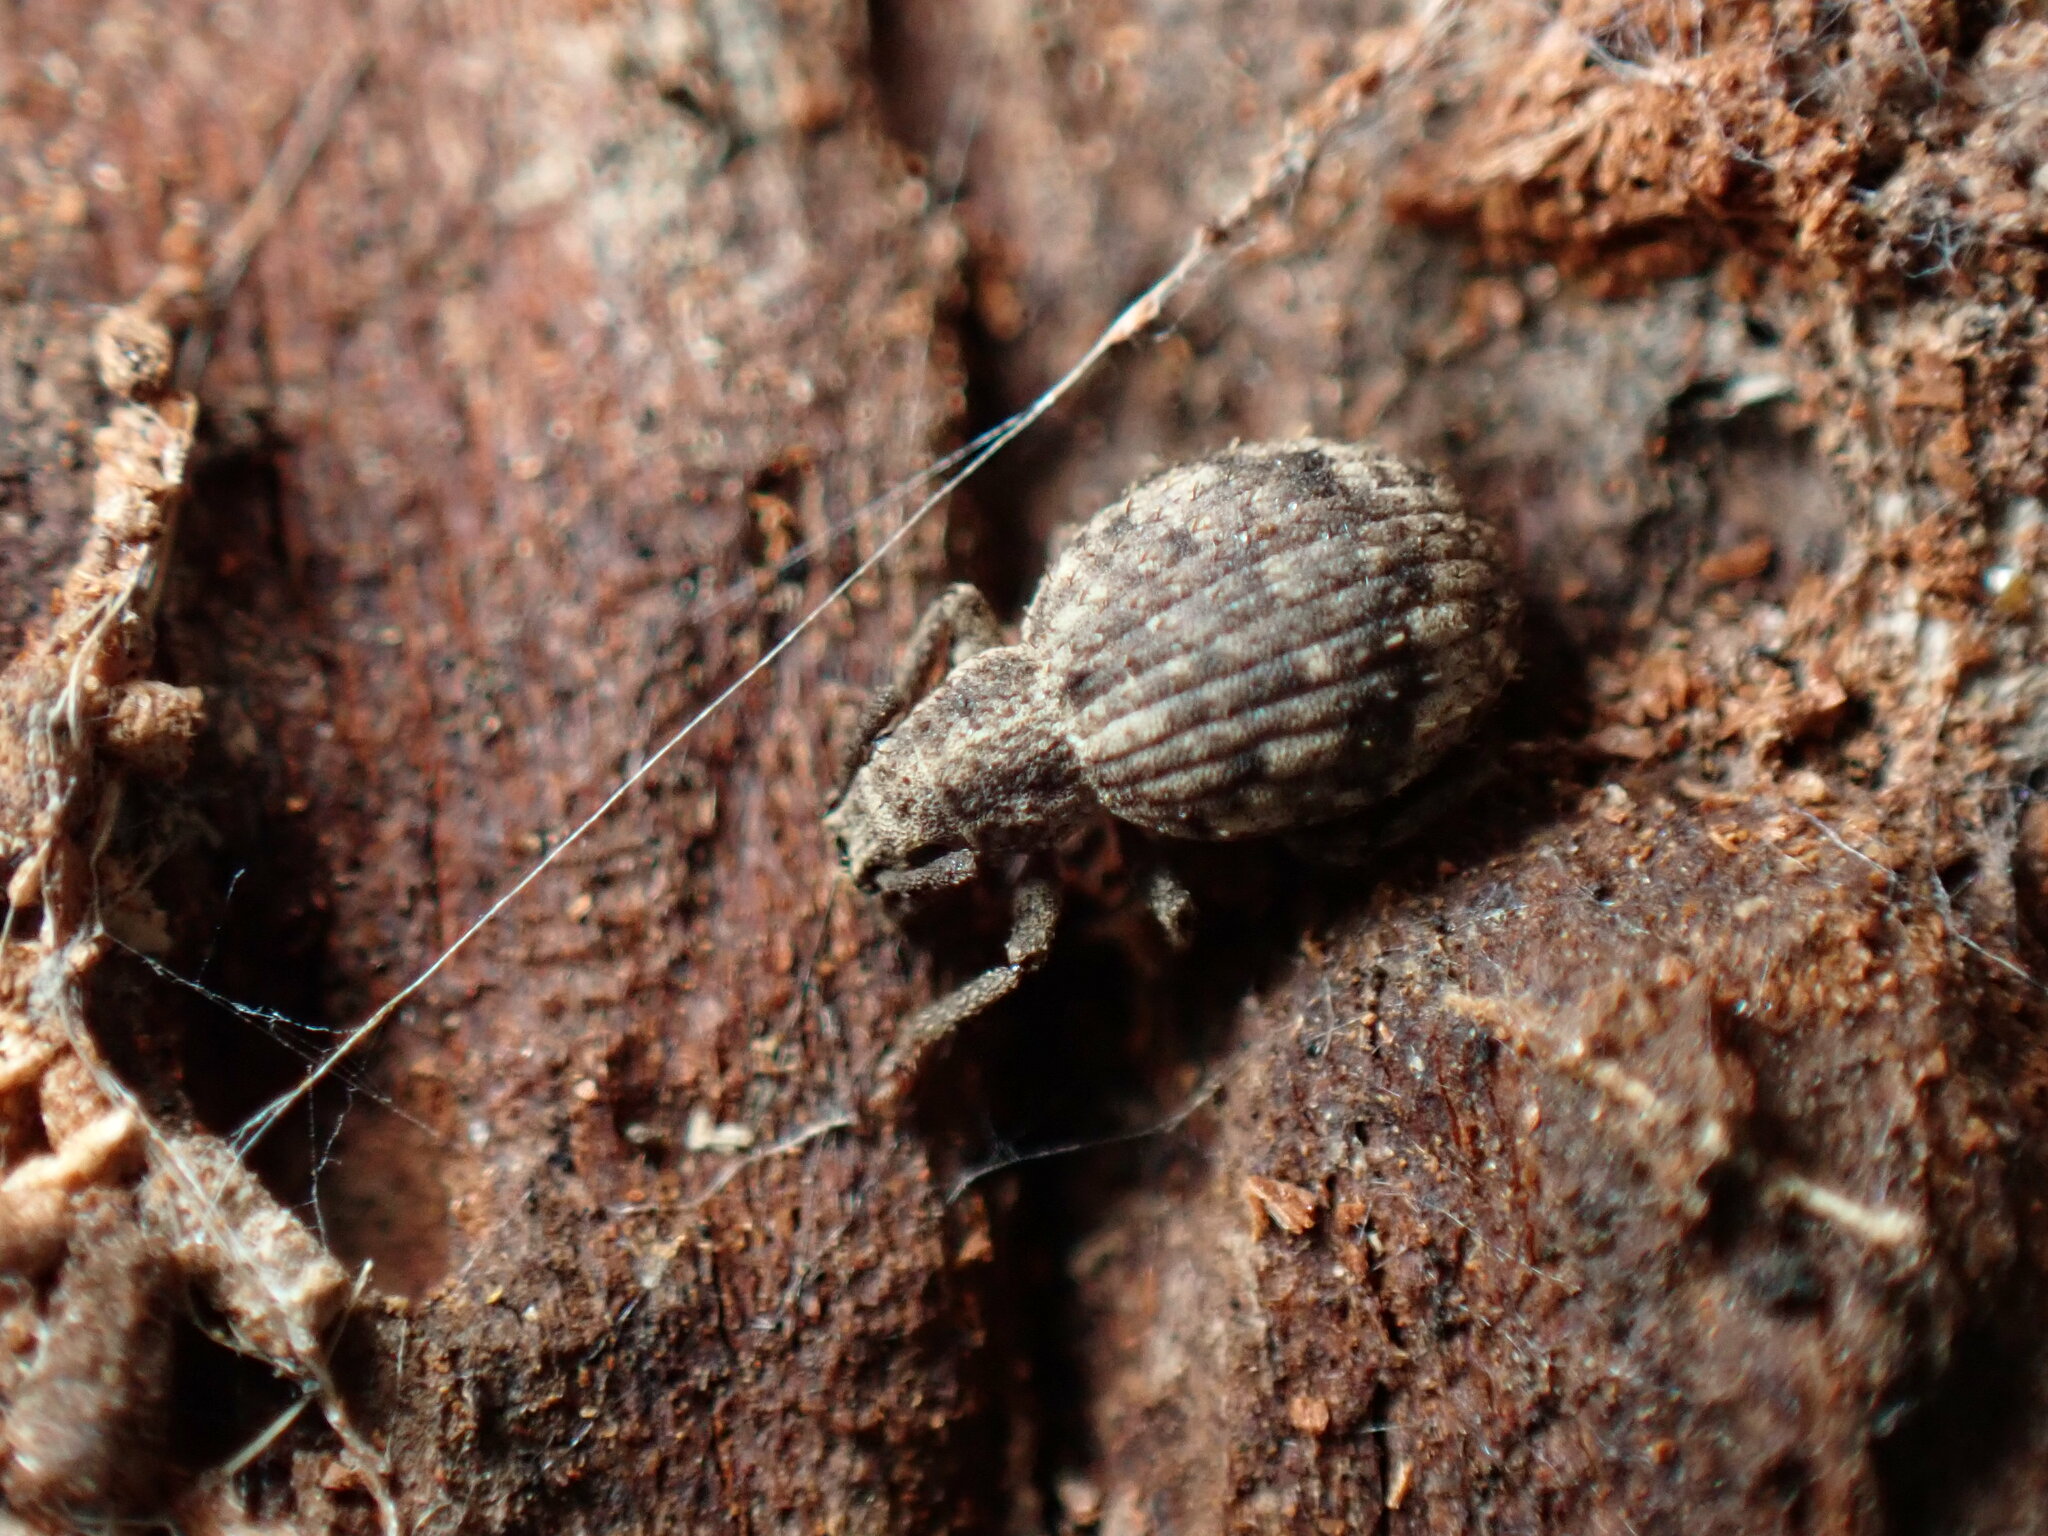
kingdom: Animalia
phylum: Arthropoda
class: Insecta
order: Coleoptera
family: Curculionidae
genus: Myosides
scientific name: Myosides seriehispidus
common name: Broadnosed weevil
